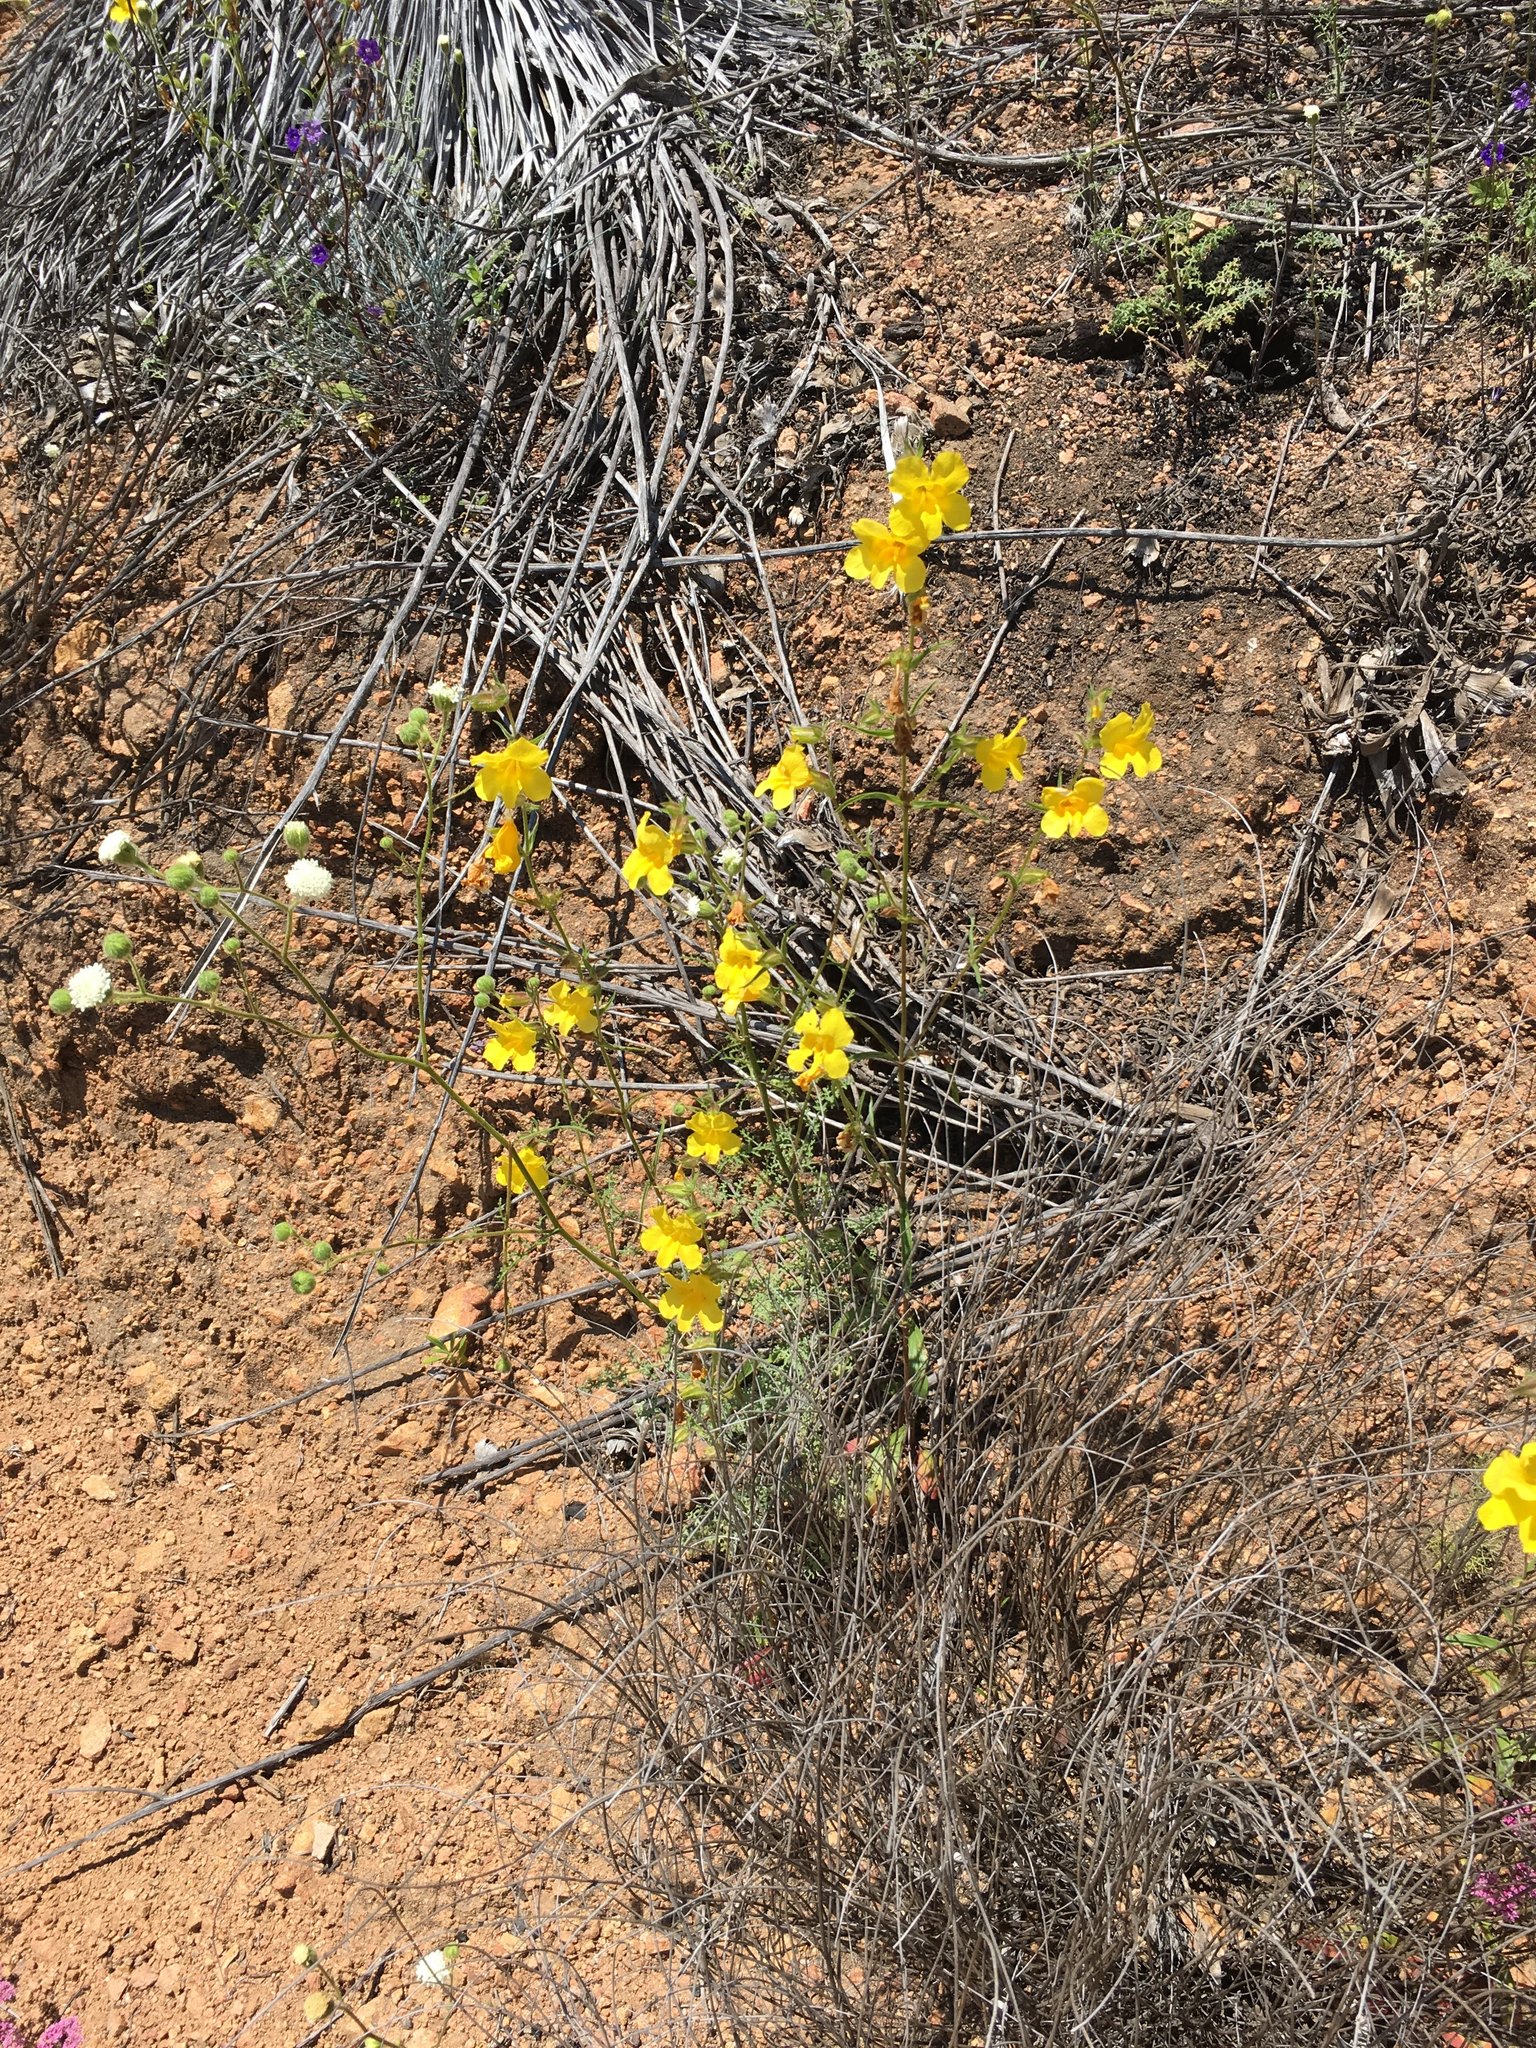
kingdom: Plantae
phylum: Tracheophyta
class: Magnoliopsida
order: Lamiales
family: Phrymaceae
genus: Diplacus
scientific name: Diplacus brevipes
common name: Wide-throat yellow monkey-flower
